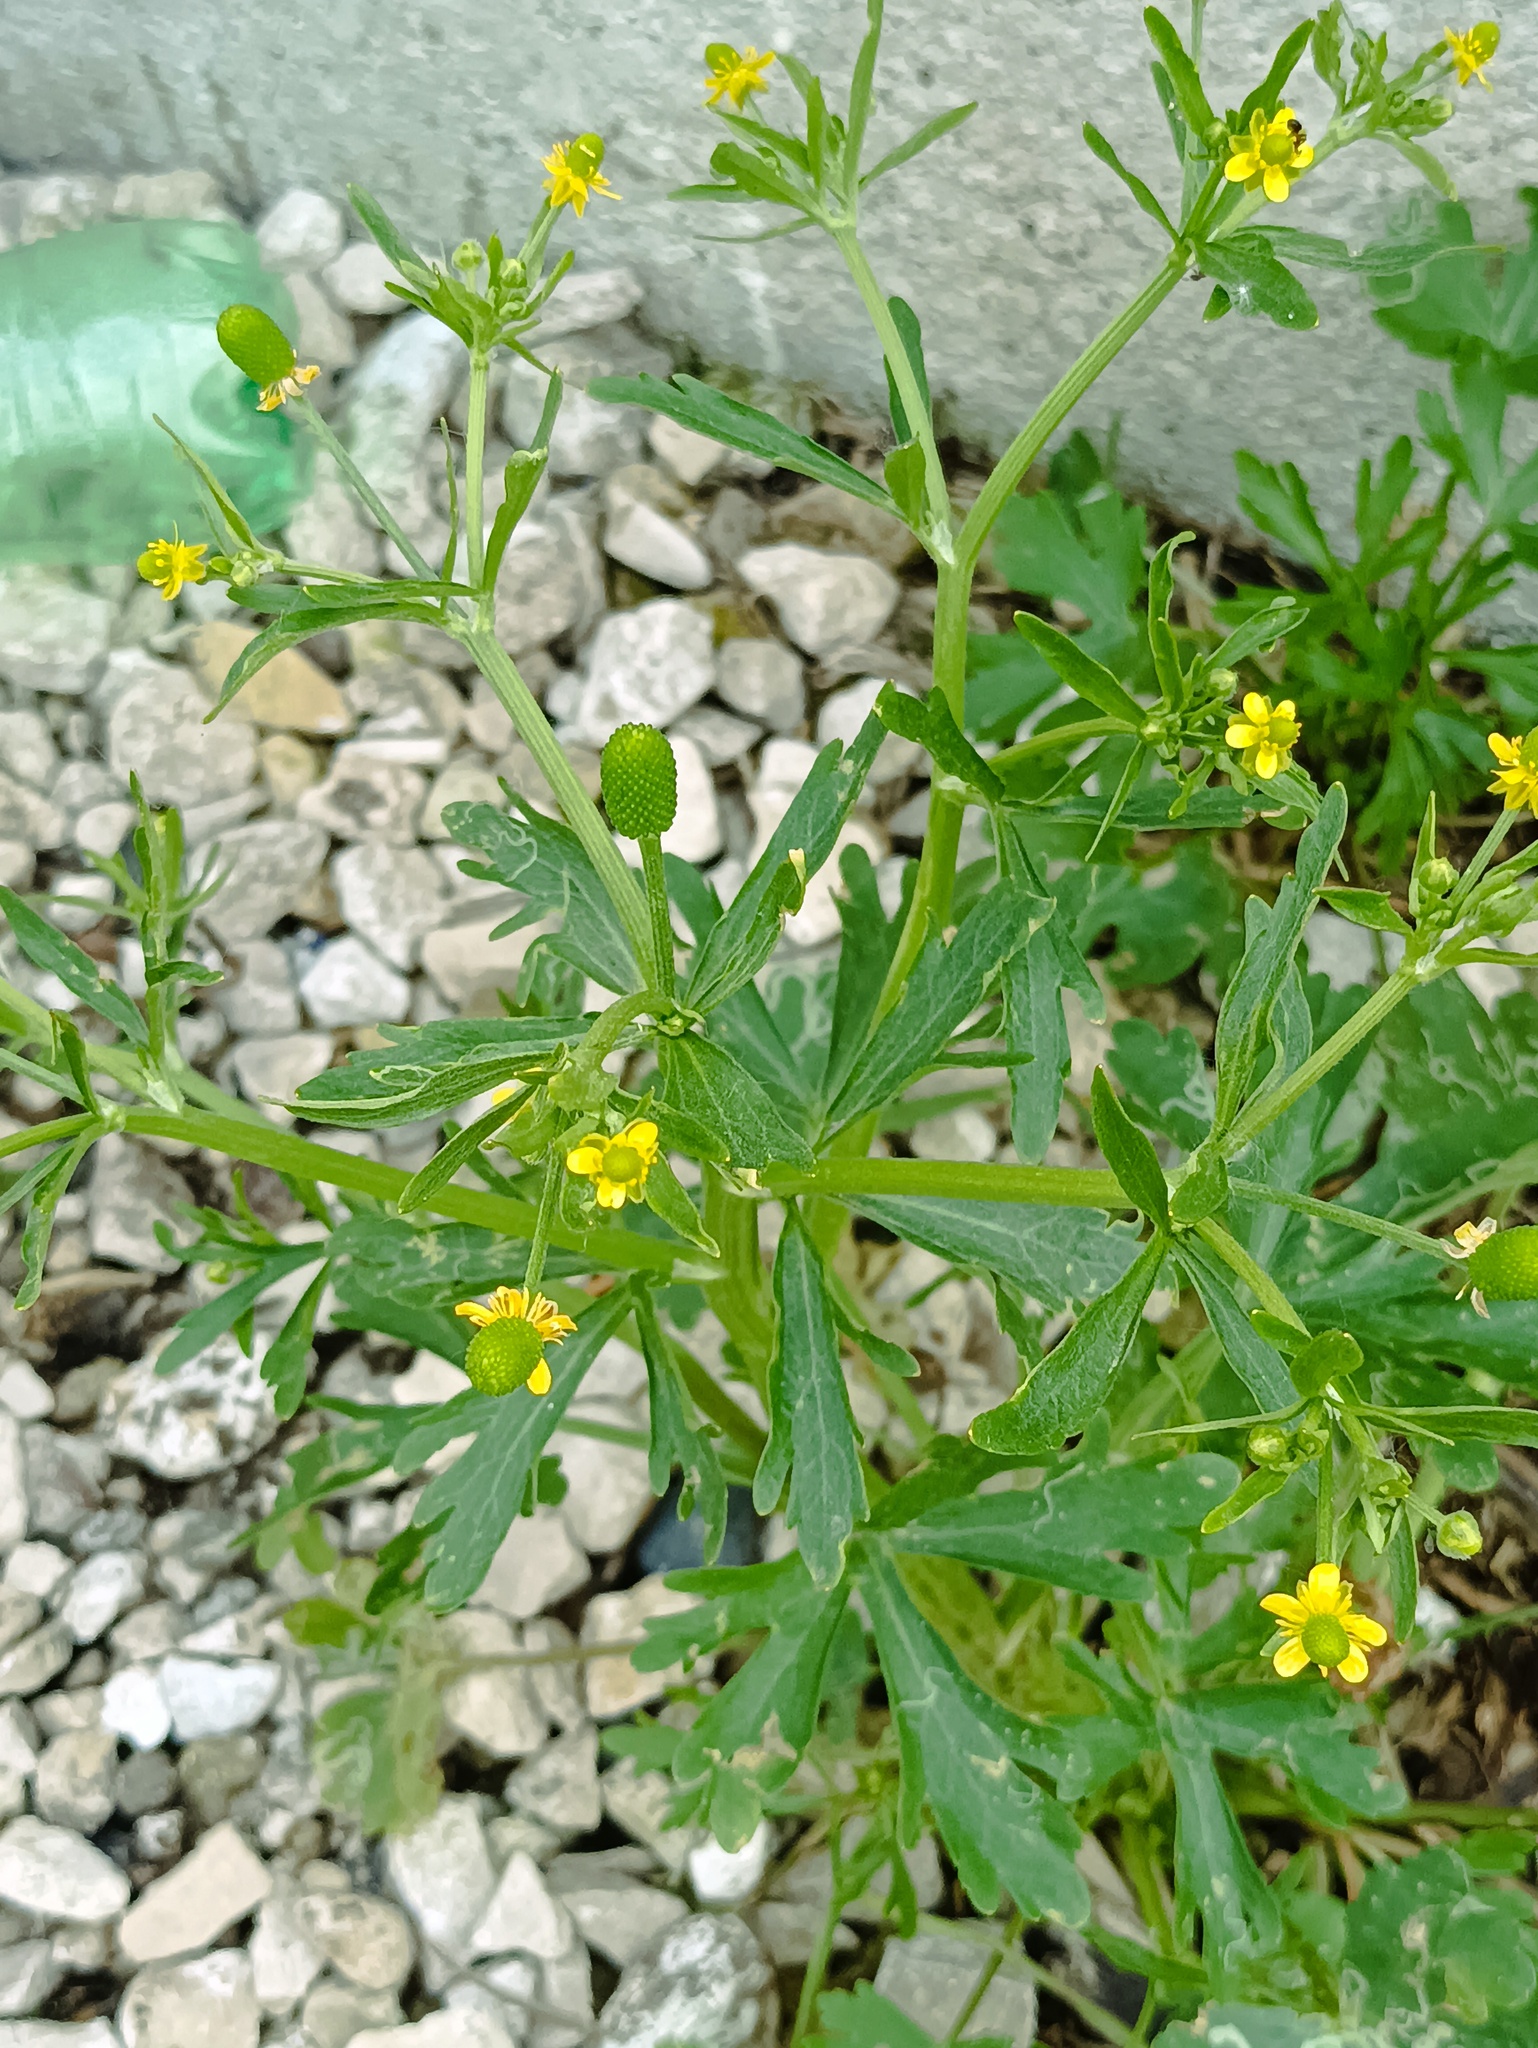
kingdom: Plantae
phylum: Tracheophyta
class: Magnoliopsida
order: Ranunculales
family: Ranunculaceae
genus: Ranunculus
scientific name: Ranunculus sceleratus
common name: Celery-leaved buttercup
